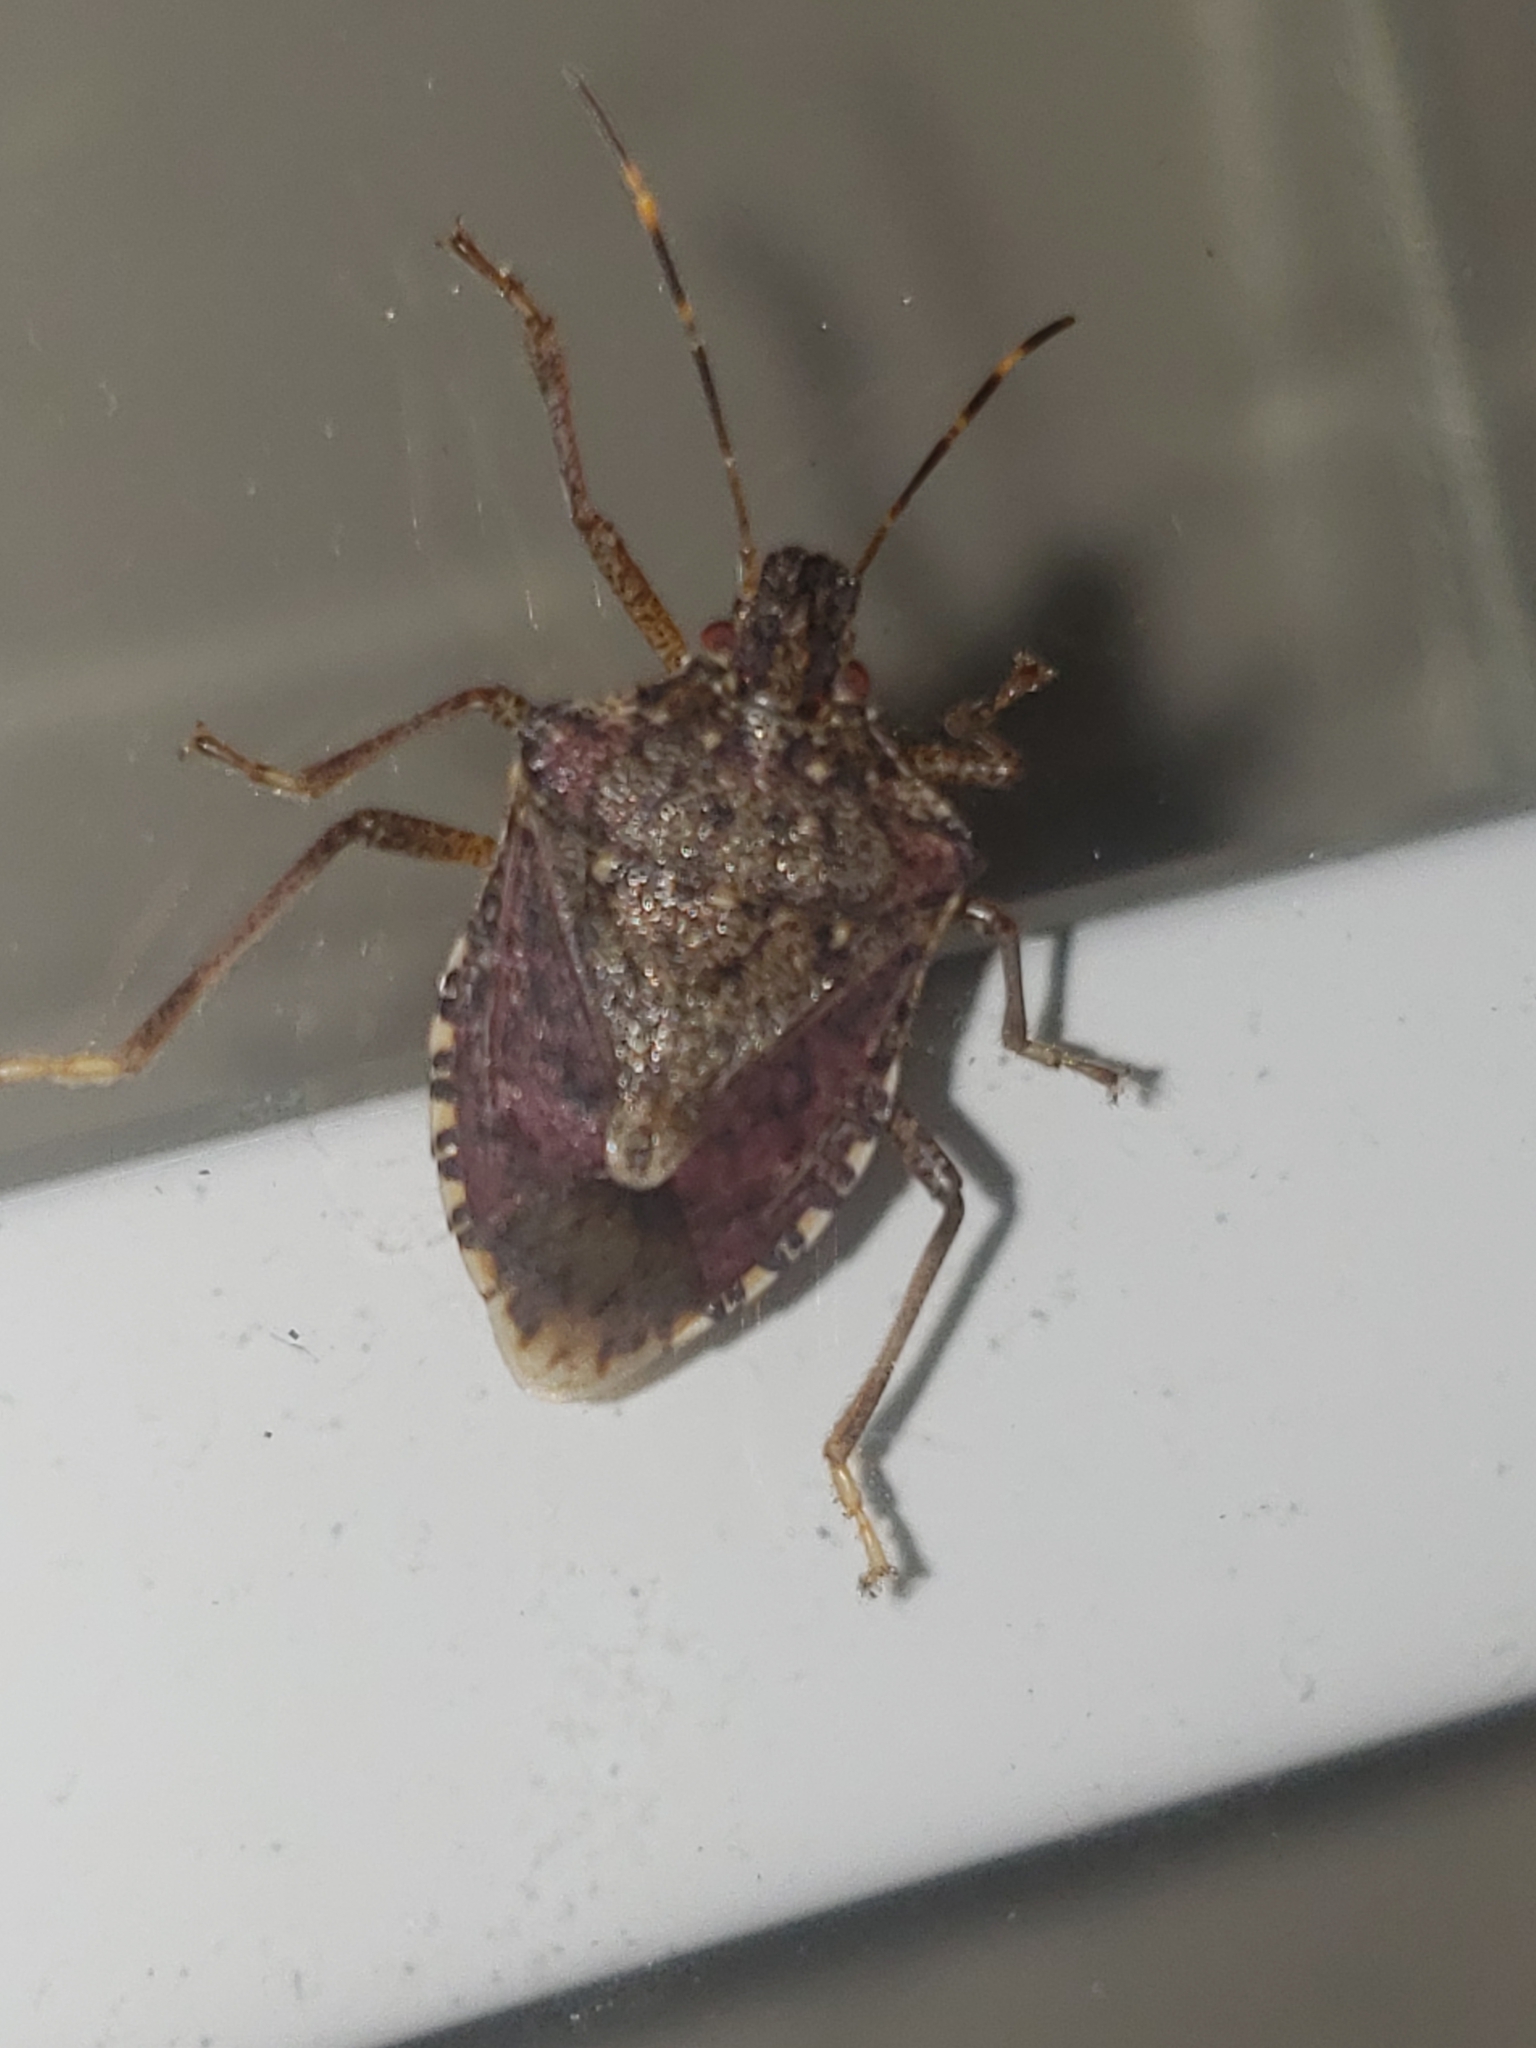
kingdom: Animalia
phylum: Arthropoda
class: Insecta
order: Hemiptera
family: Pentatomidae
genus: Halyomorpha
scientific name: Halyomorpha halys
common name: Brown marmorated stink bug
